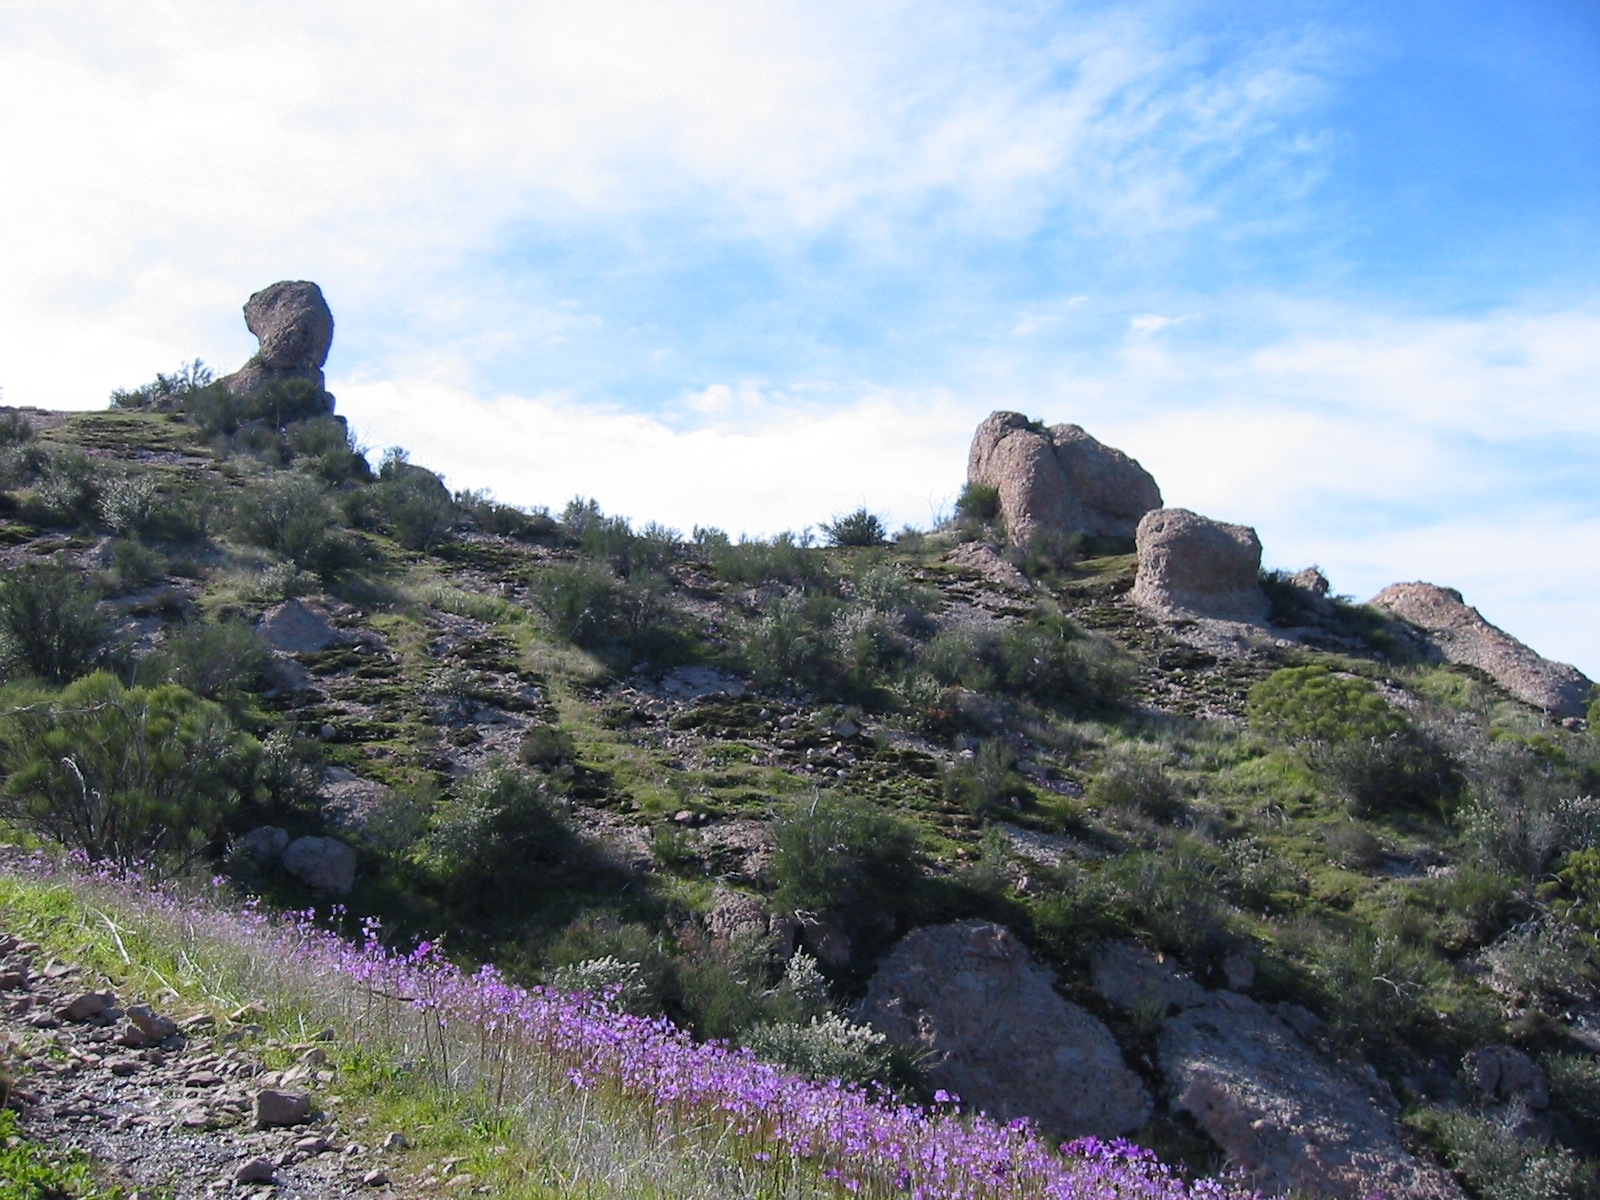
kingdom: Plantae
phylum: Tracheophyta
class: Magnoliopsida
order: Ericales
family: Primulaceae
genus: Dodecatheon
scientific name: Dodecatheon clevelandii
